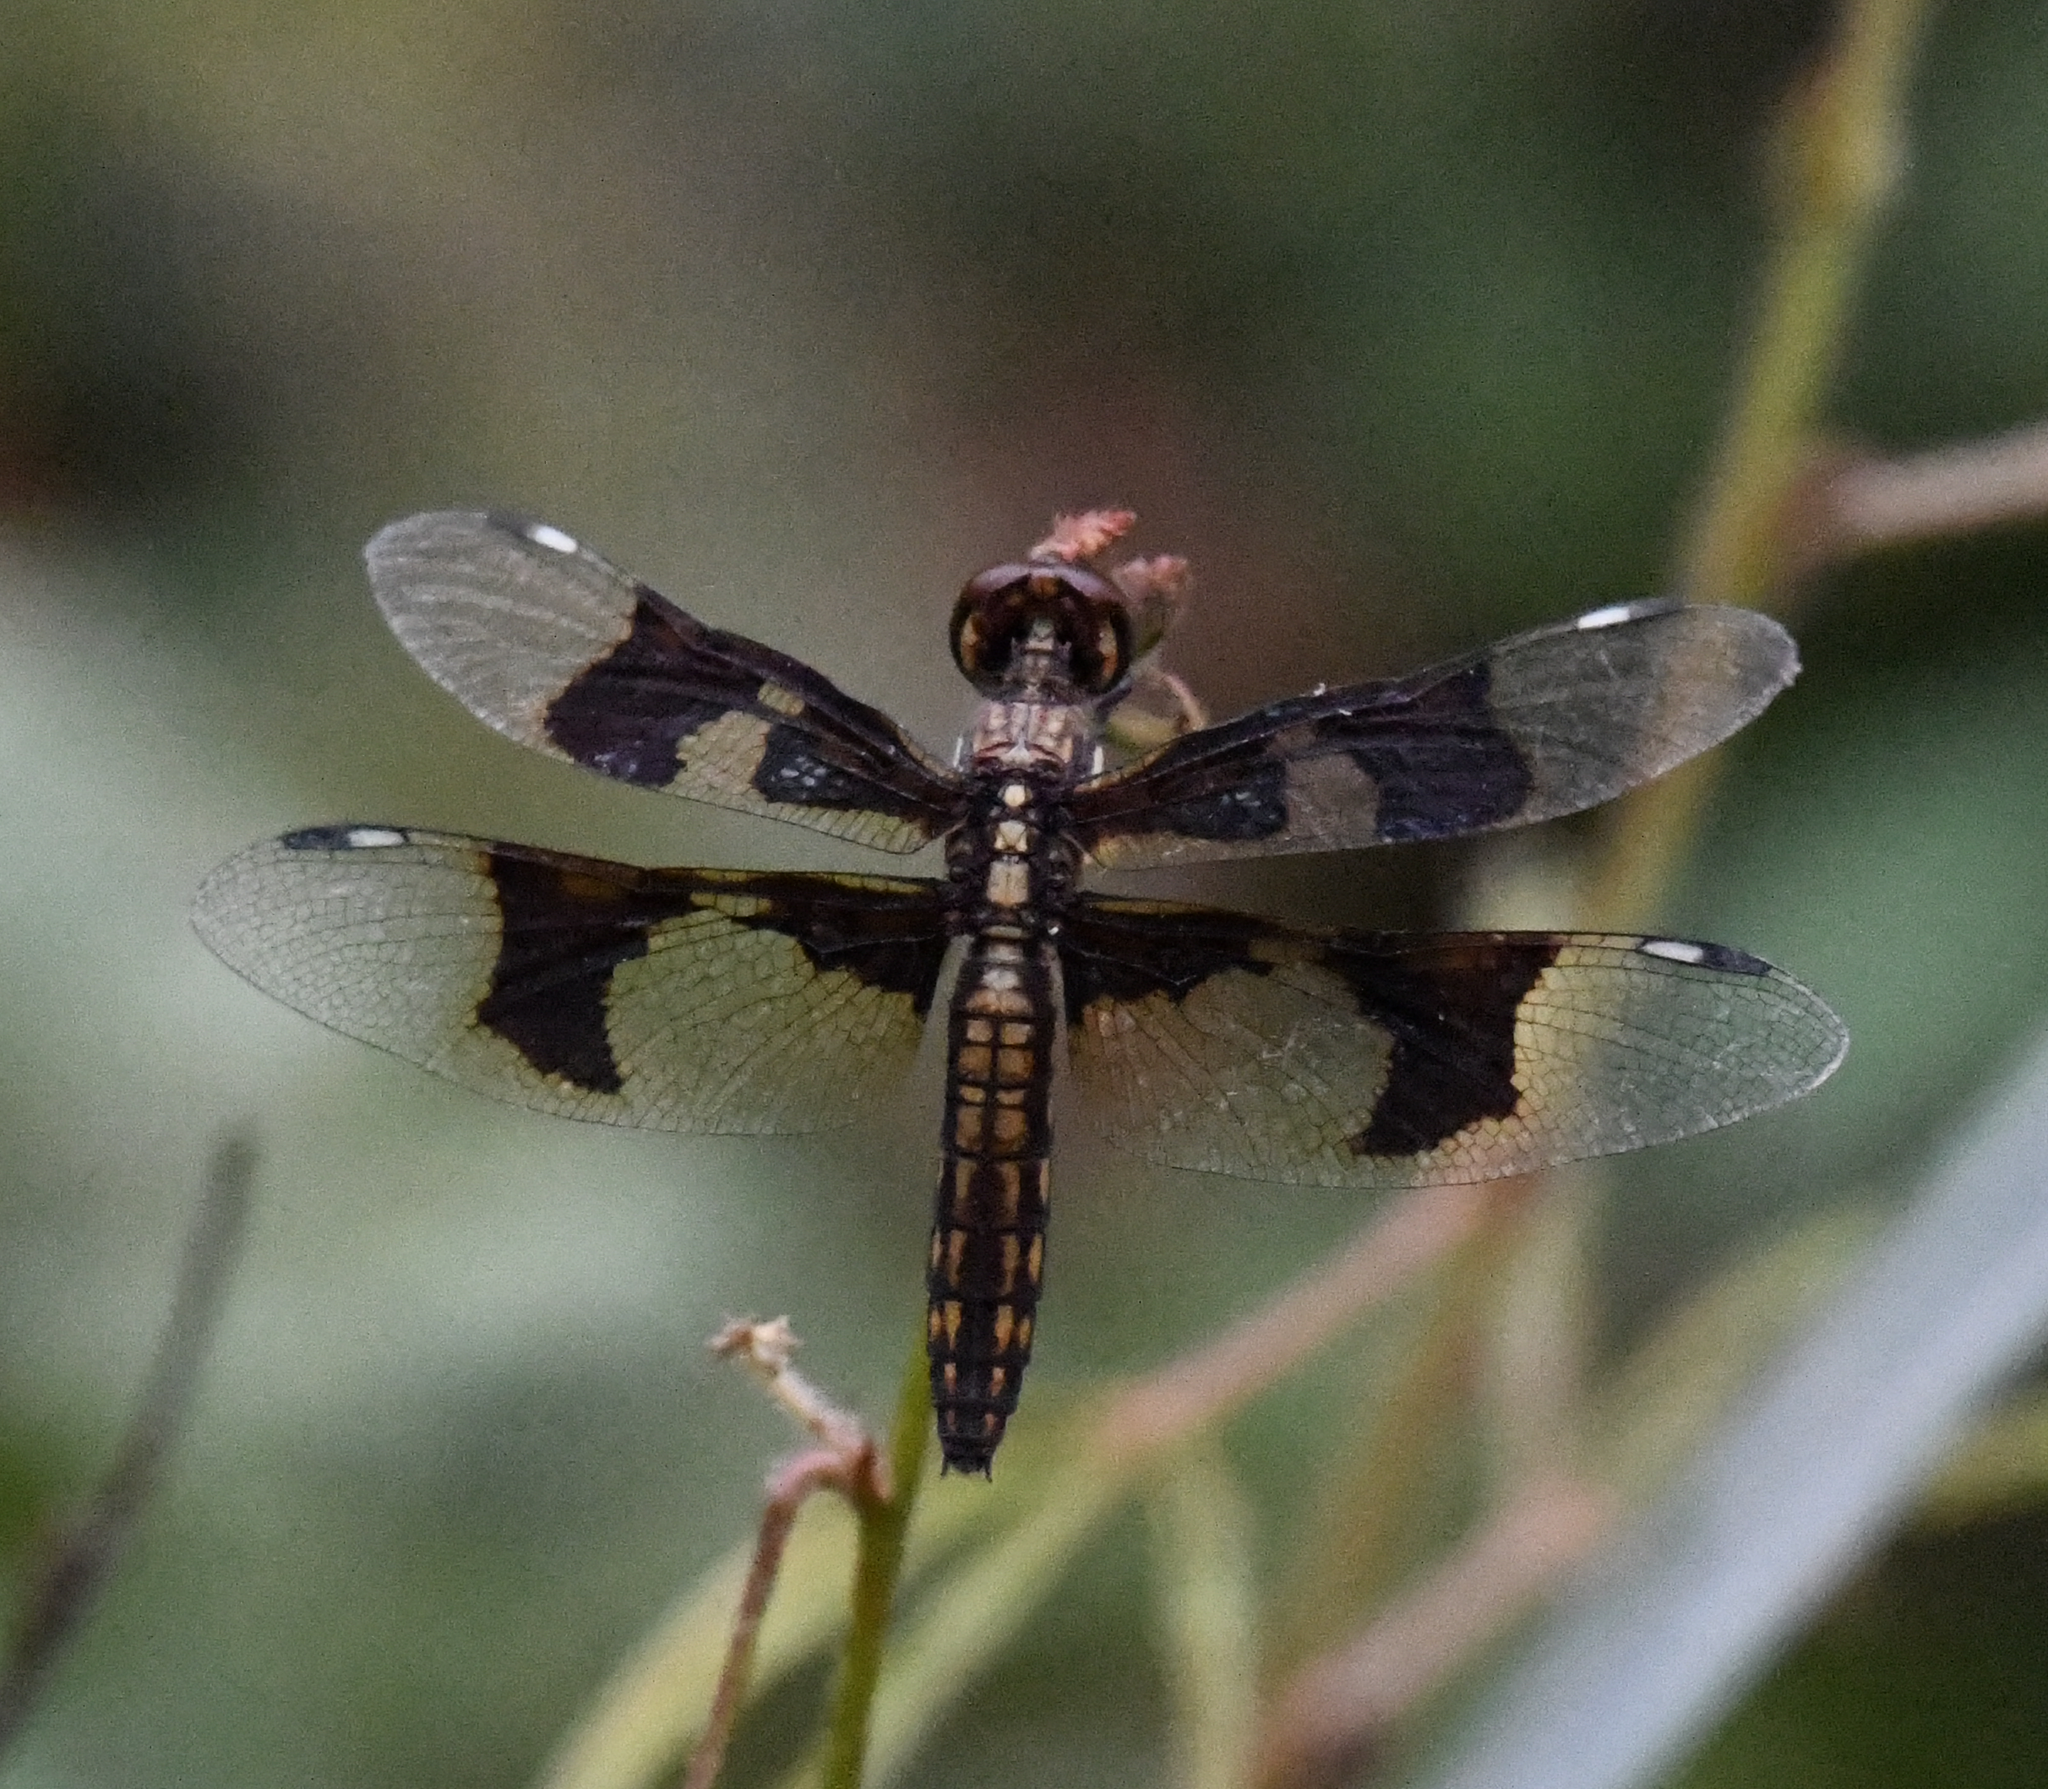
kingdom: Animalia
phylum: Arthropoda
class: Insecta
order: Odonata
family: Libellulidae
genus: Palpopleura
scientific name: Palpopleura lucia
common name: Lucia widow
